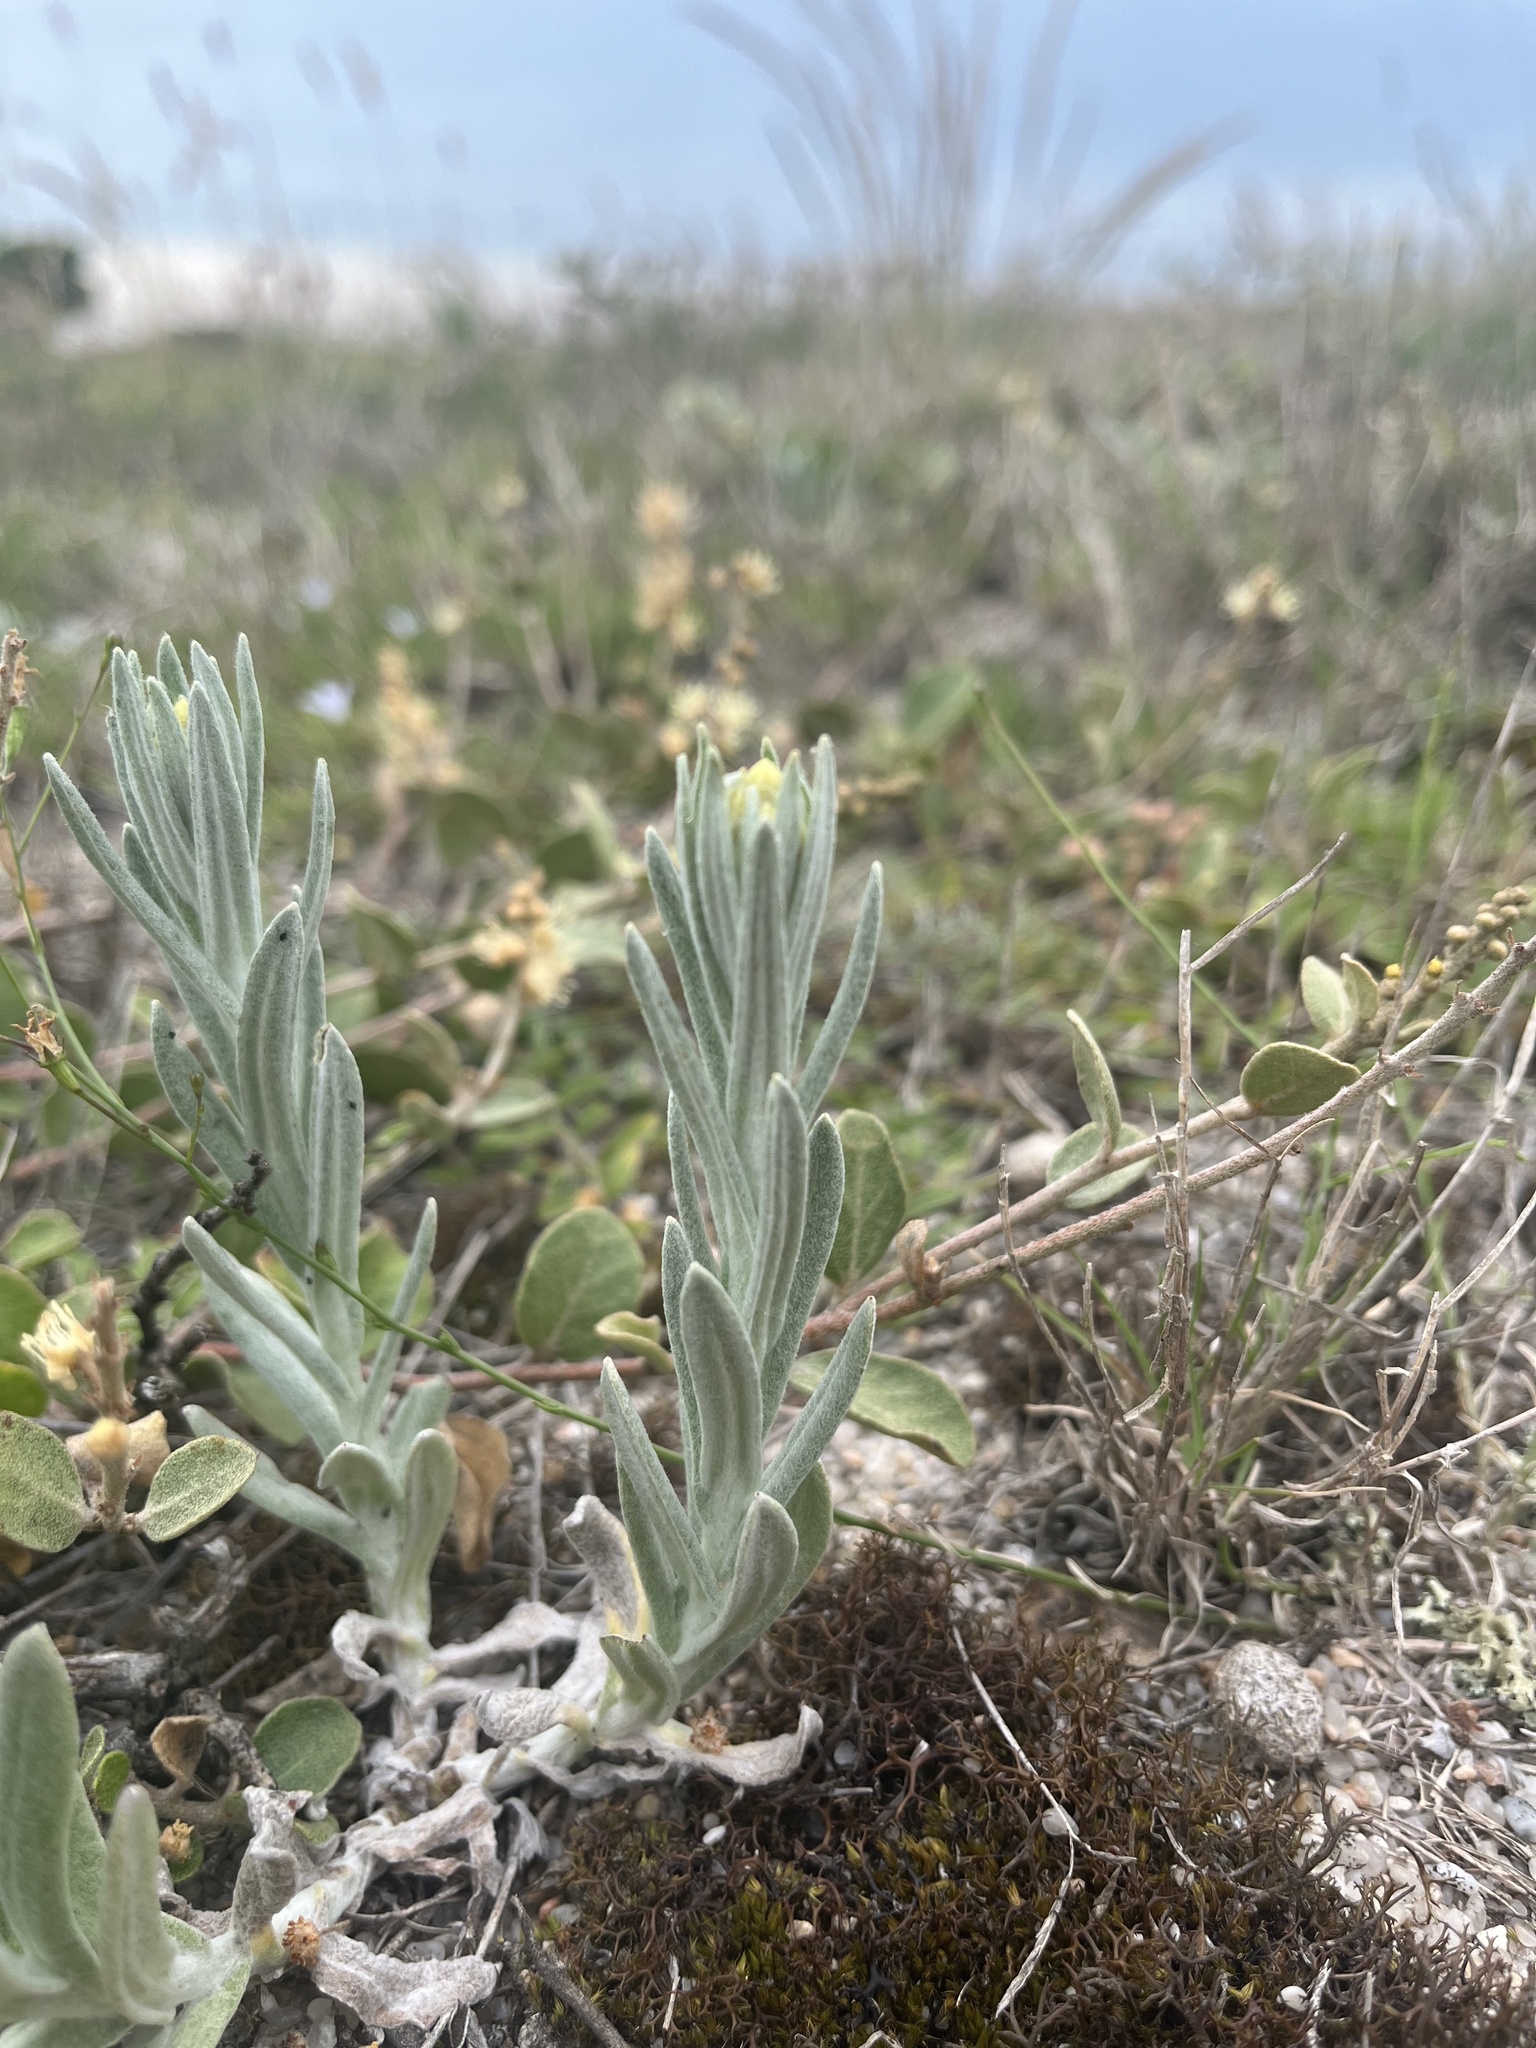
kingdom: Plantae
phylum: Tracheophyta
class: Magnoliopsida
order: Asterales
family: Asteraceae
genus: Pseudognaphalium
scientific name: Pseudognaphalium cheiranthifolium
